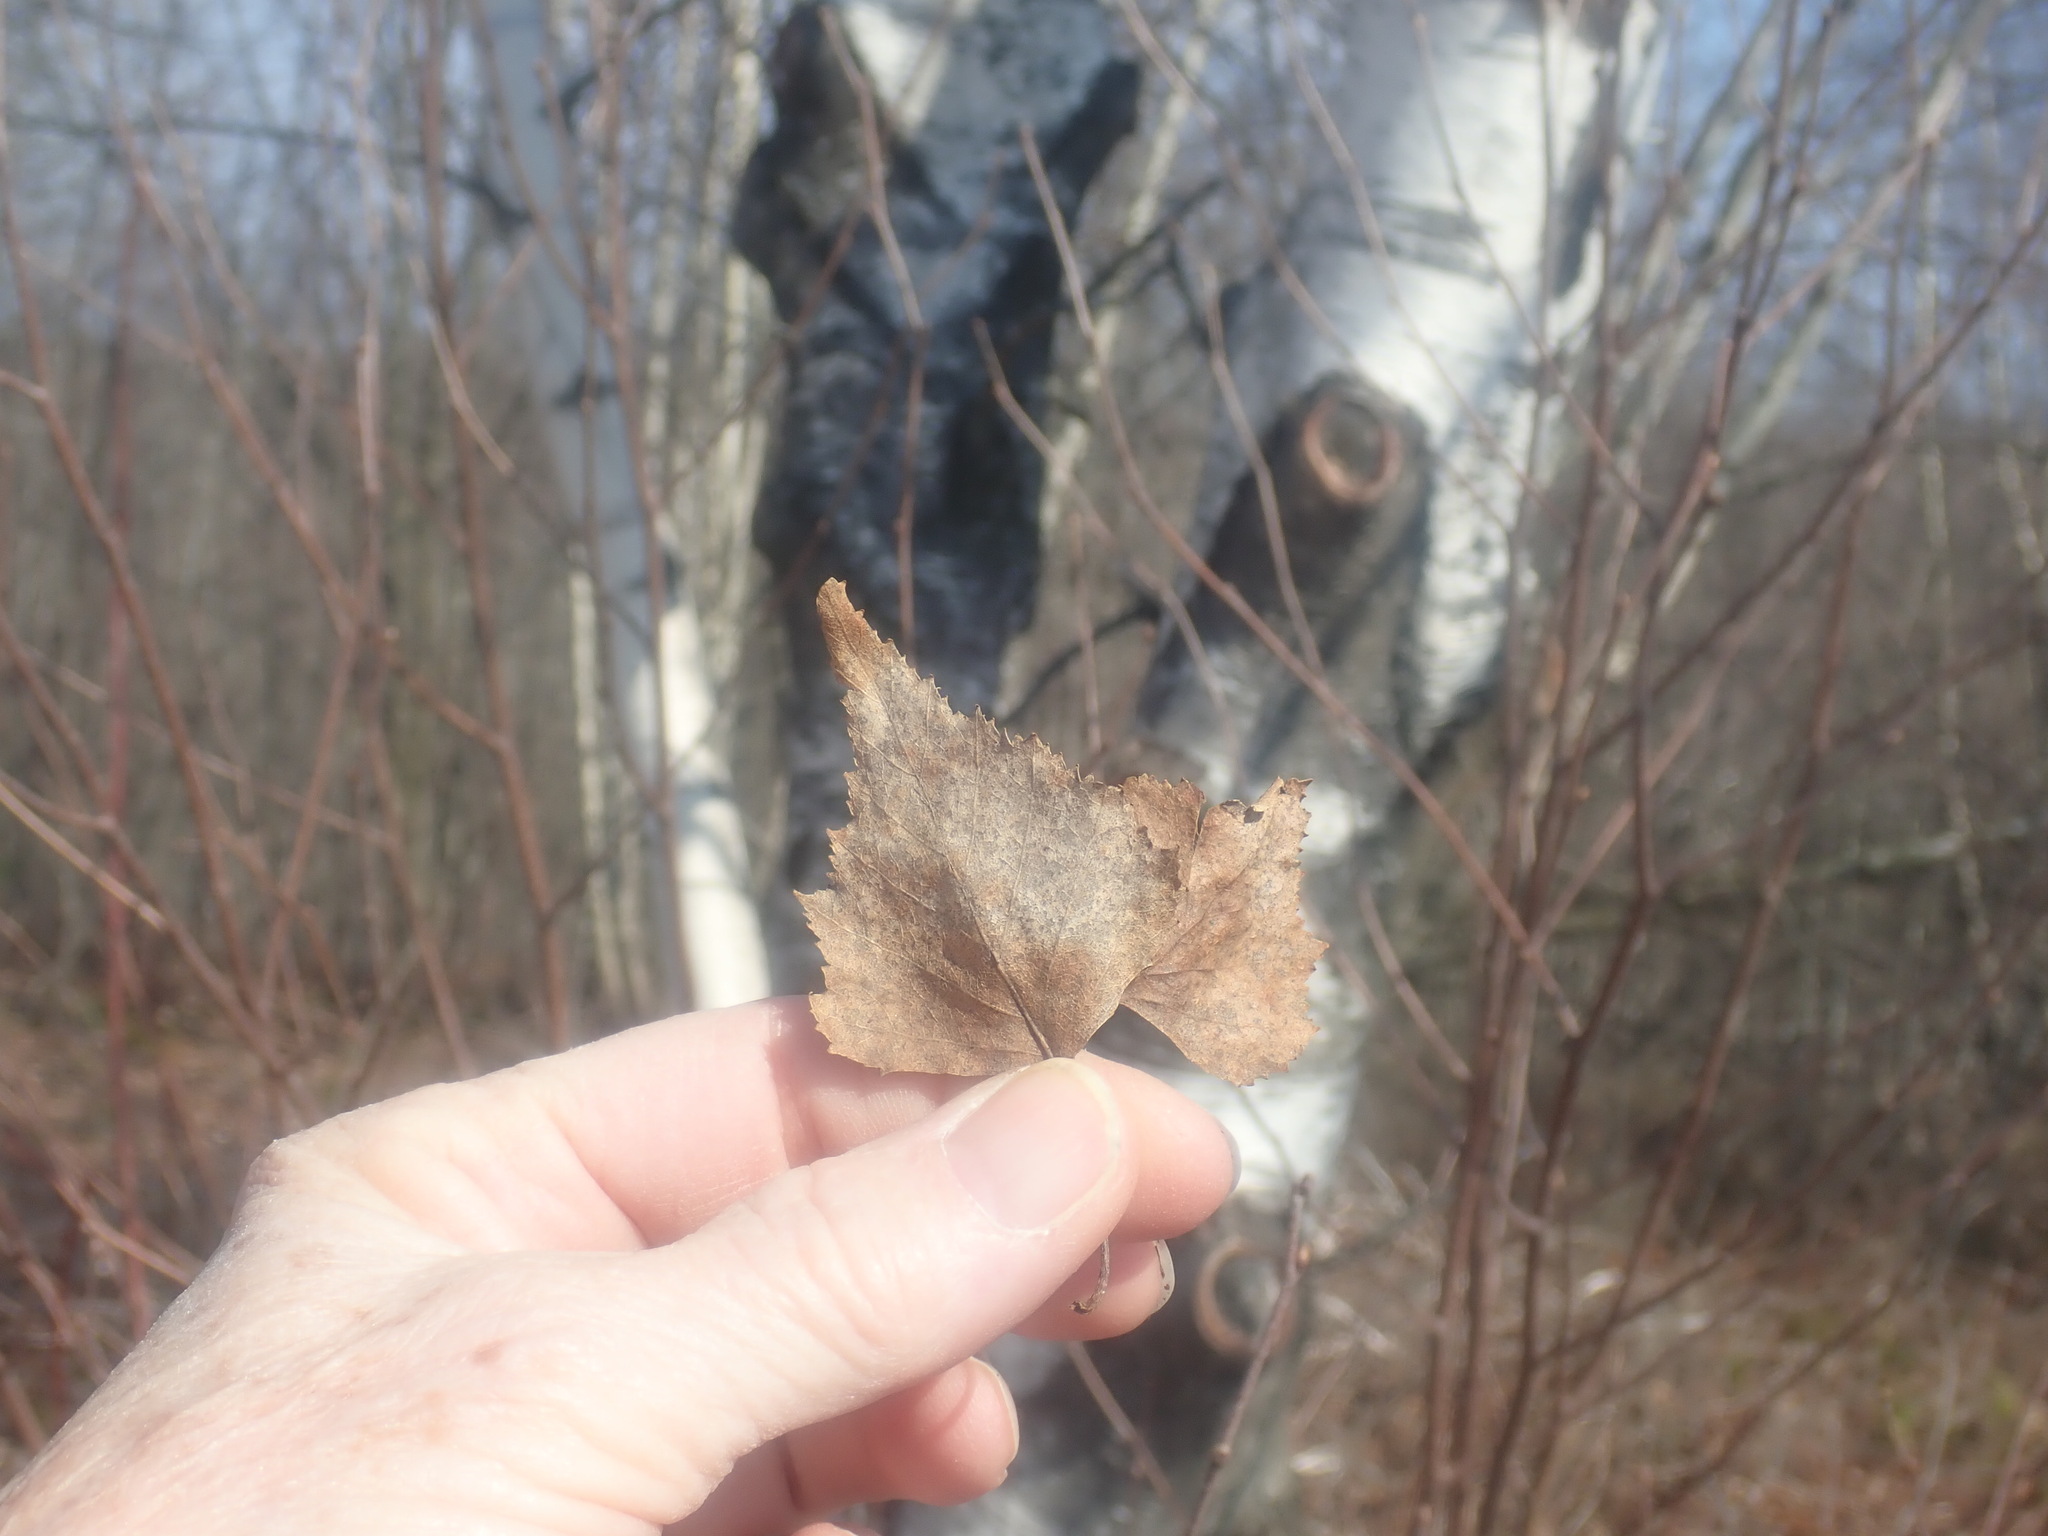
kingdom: Plantae
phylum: Tracheophyta
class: Magnoliopsida
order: Fagales
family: Betulaceae
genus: Betula
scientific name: Betula populifolia
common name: Fire birch
